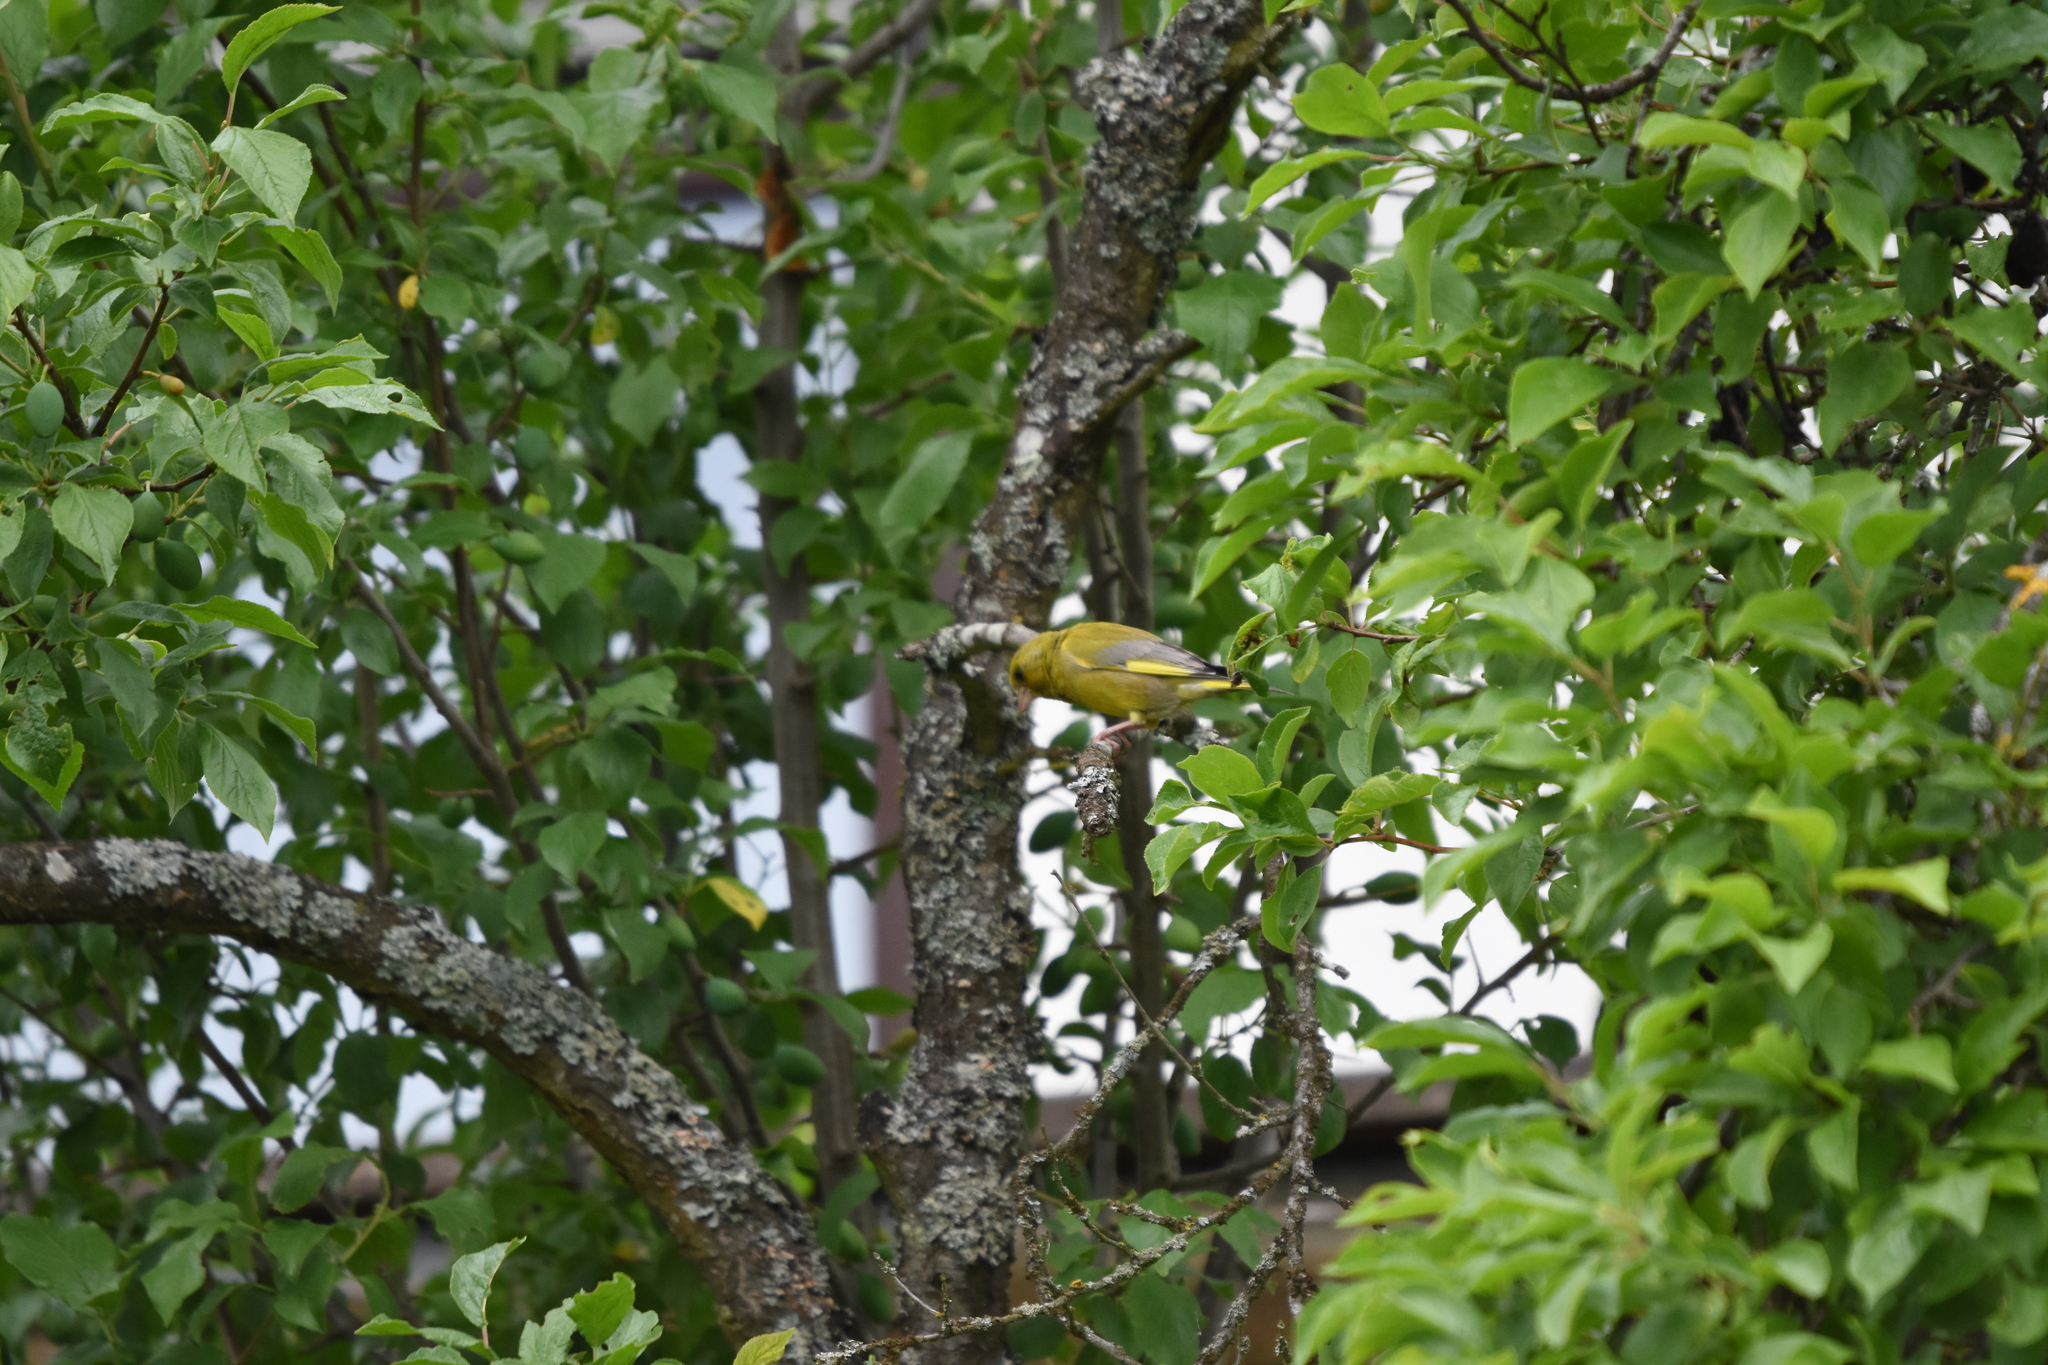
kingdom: Plantae
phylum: Tracheophyta
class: Liliopsida
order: Poales
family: Poaceae
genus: Chloris
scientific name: Chloris chloris
